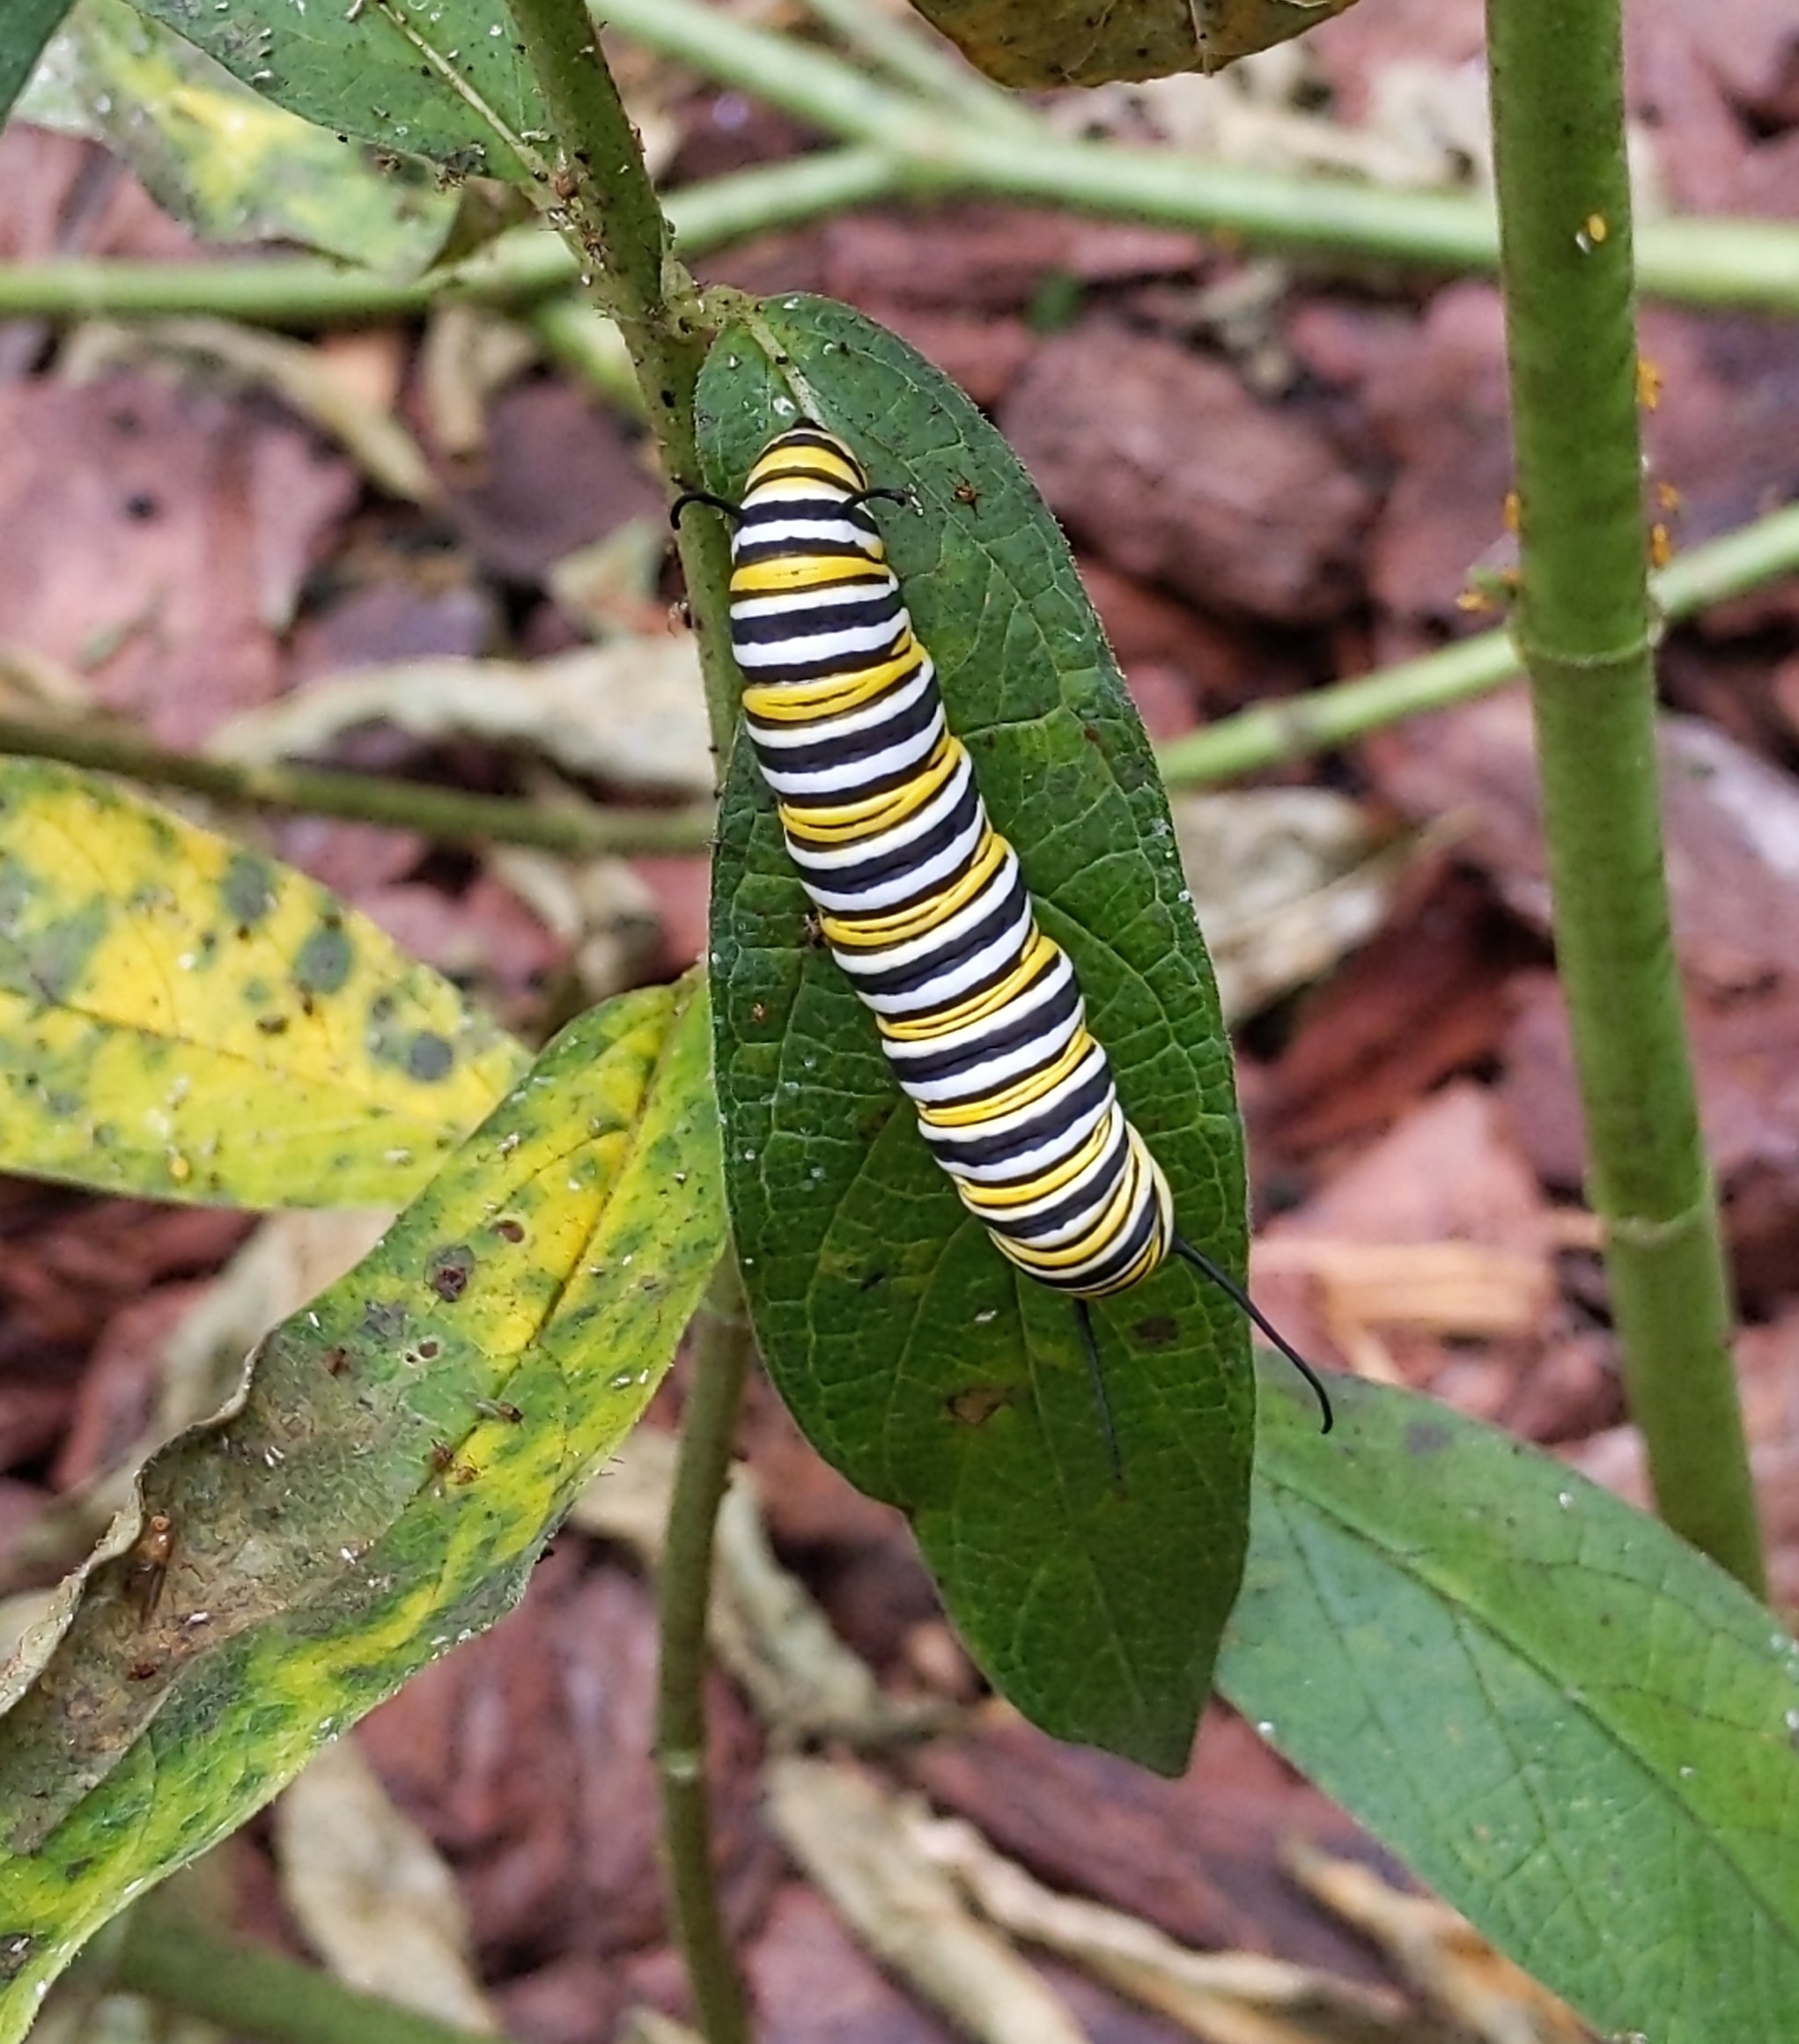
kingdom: Animalia
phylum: Arthropoda
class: Insecta
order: Lepidoptera
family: Nymphalidae
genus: Danaus
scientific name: Danaus plexippus
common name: Monarch
